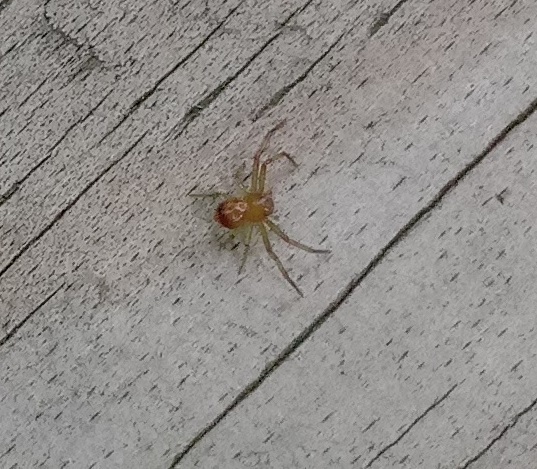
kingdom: Animalia
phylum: Arthropoda
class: Arachnida
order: Araneae
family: Thomisidae
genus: Synema
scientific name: Synema parvulum
